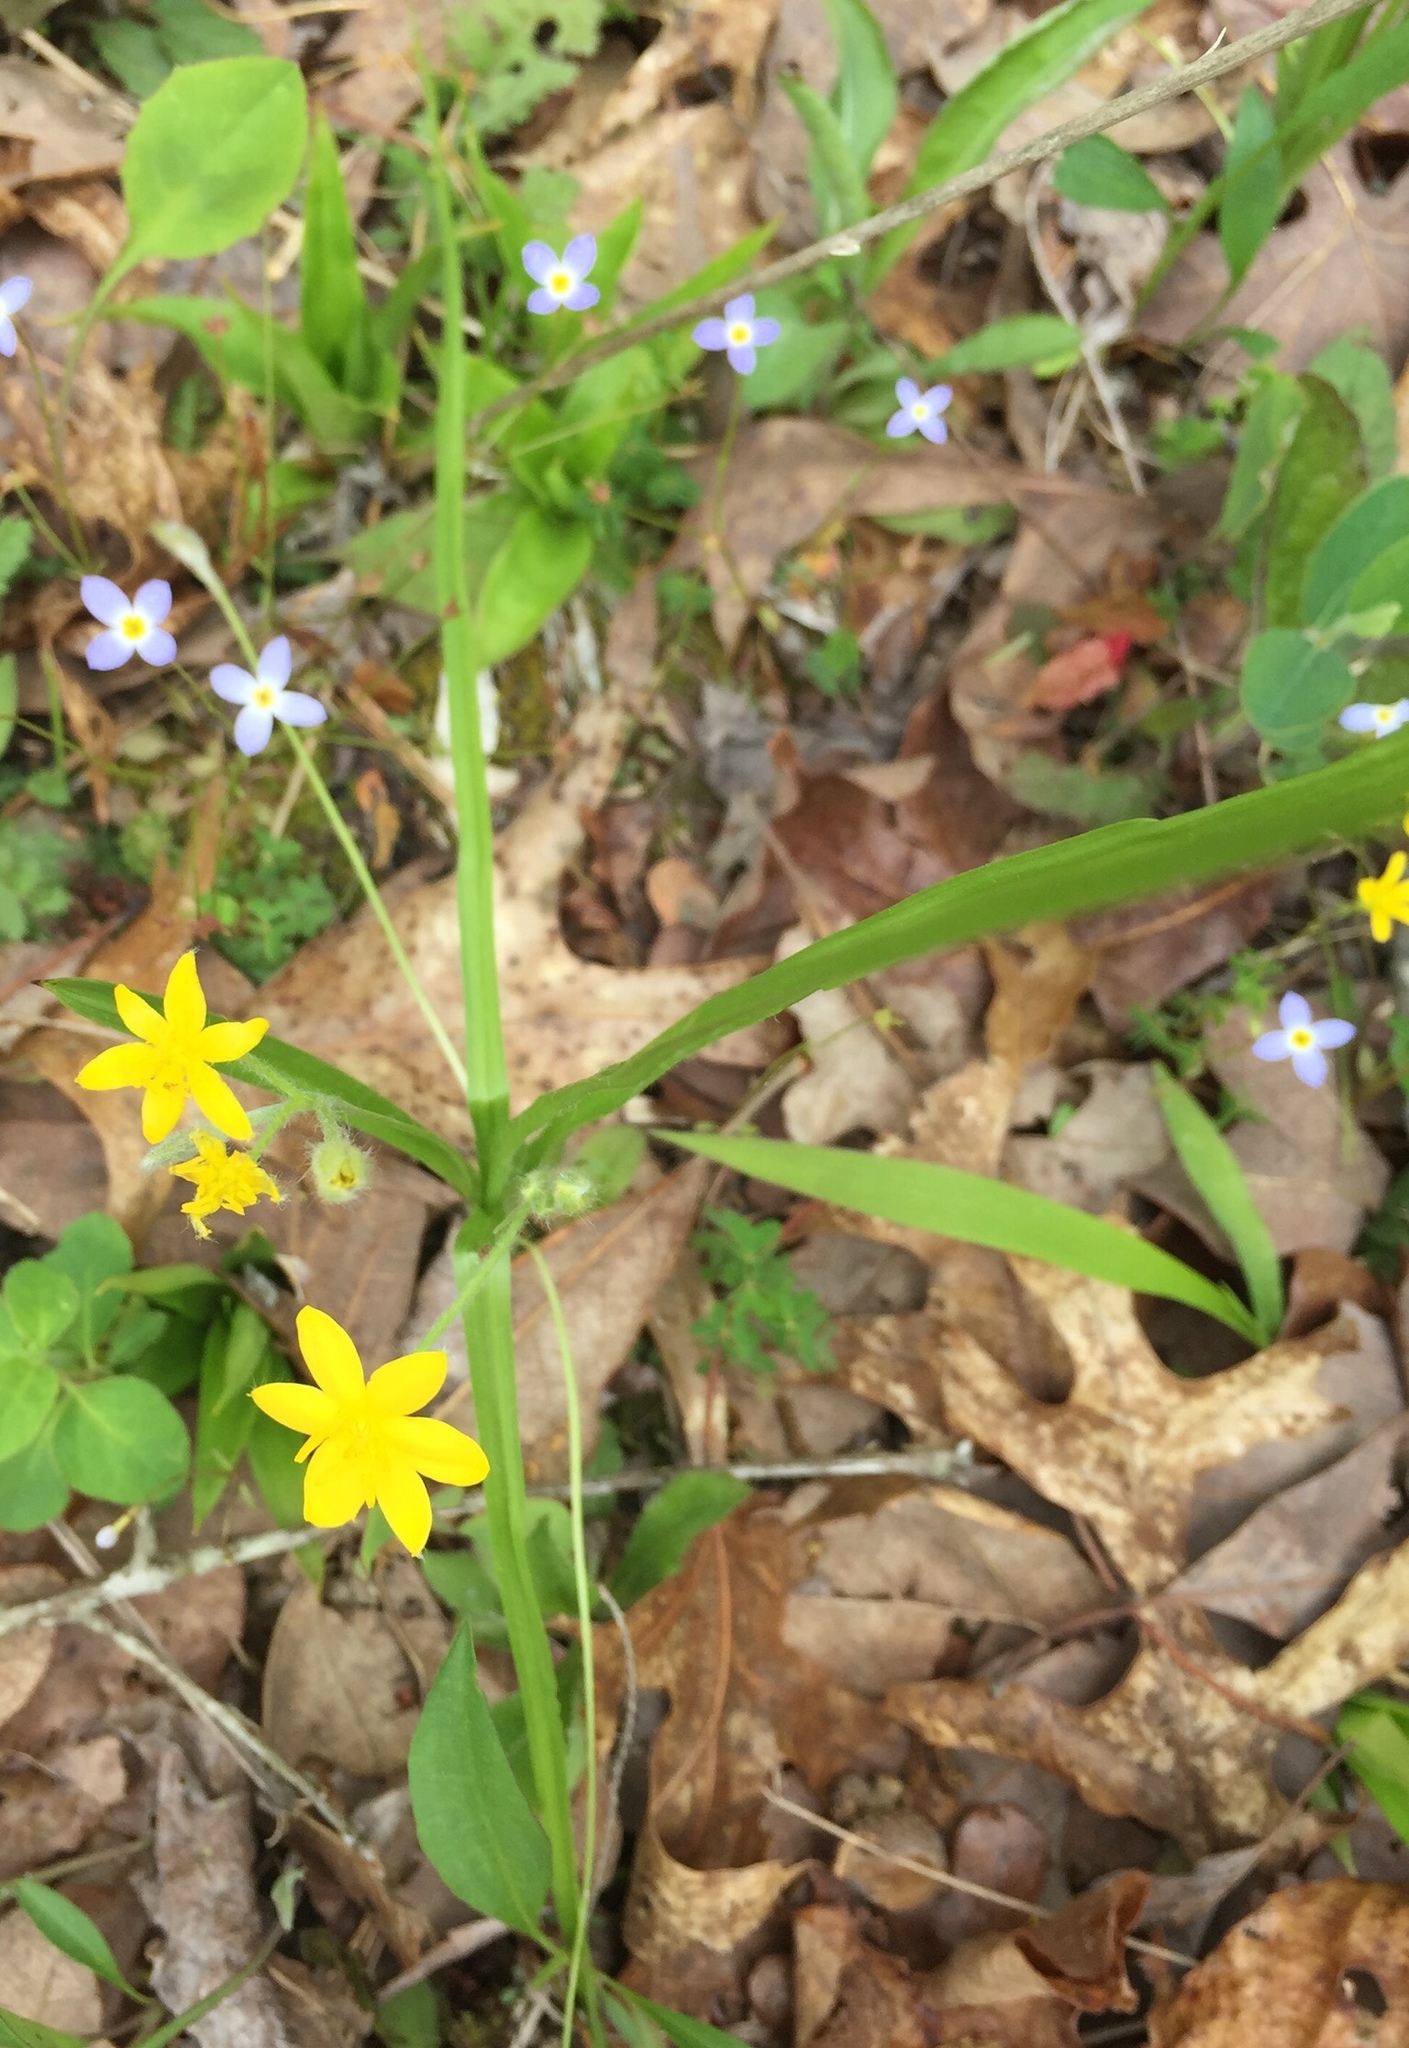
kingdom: Plantae
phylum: Tracheophyta
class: Liliopsida
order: Asparagales
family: Hypoxidaceae
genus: Hypoxis
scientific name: Hypoxis hirsuta
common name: Common goldstar
